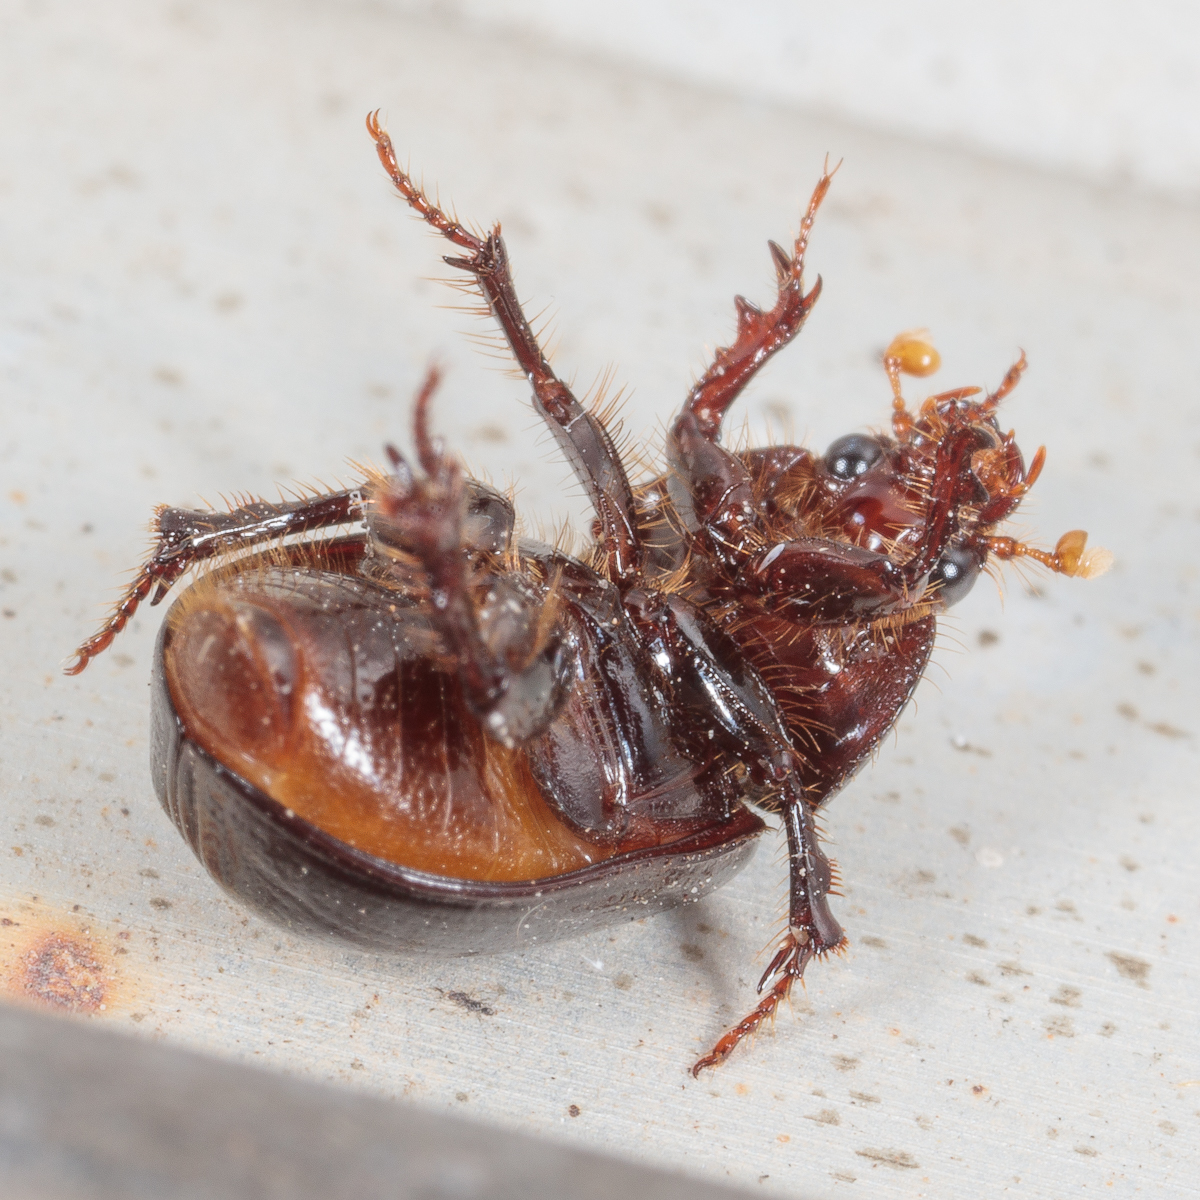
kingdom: Animalia
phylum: Arthropoda
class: Insecta
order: Coleoptera
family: Hybosoridae
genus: Hybosorus
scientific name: Hybosorus illigeri
